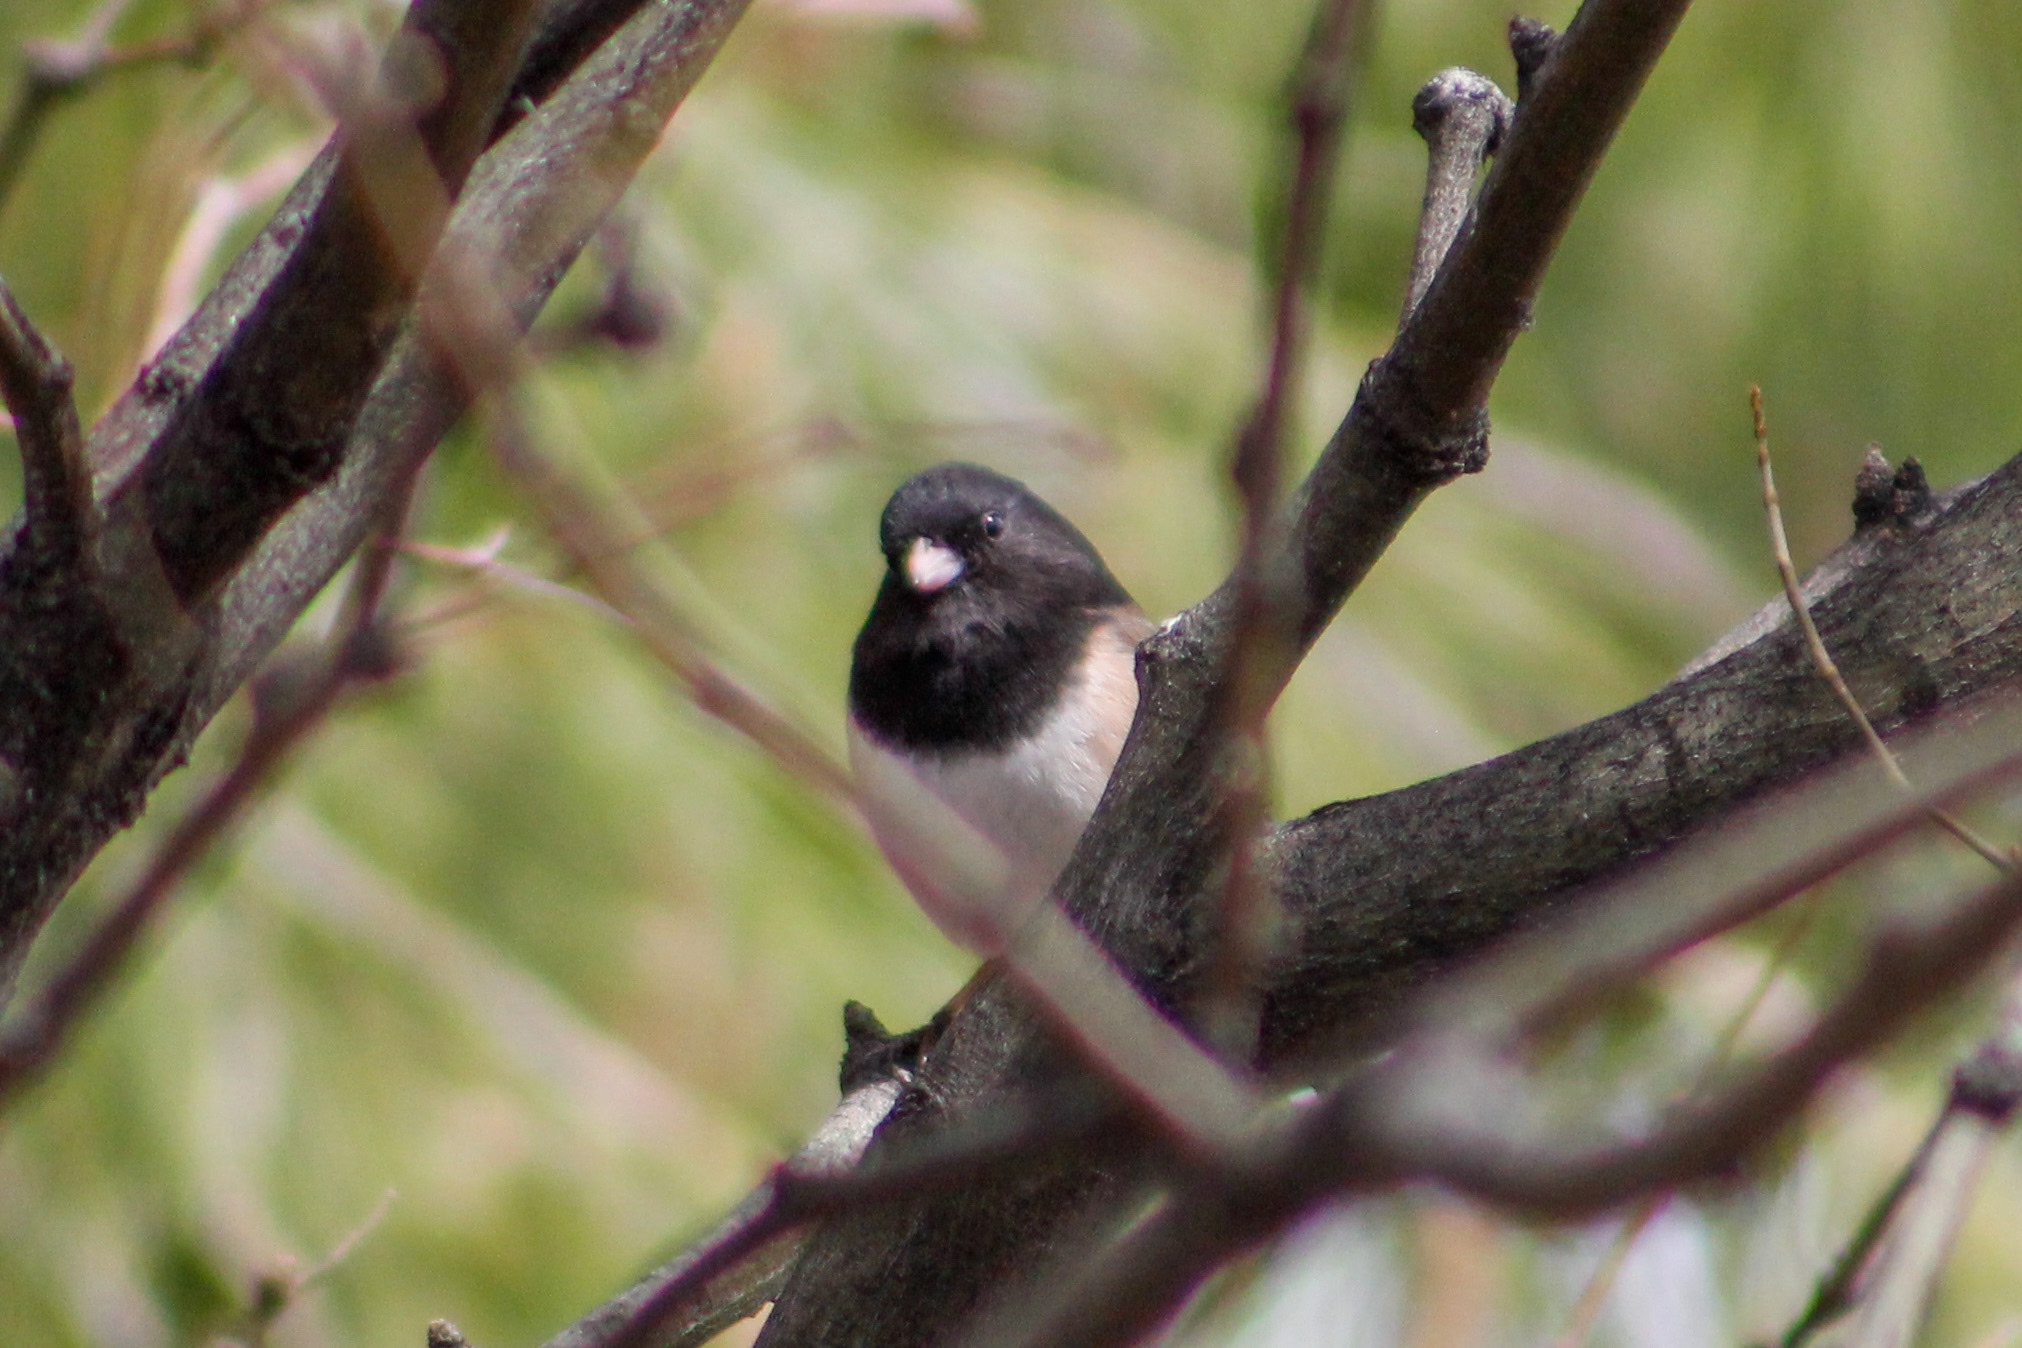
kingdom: Animalia
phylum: Chordata
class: Aves
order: Passeriformes
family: Passerellidae
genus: Junco
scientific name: Junco hyemalis
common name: Dark-eyed junco
